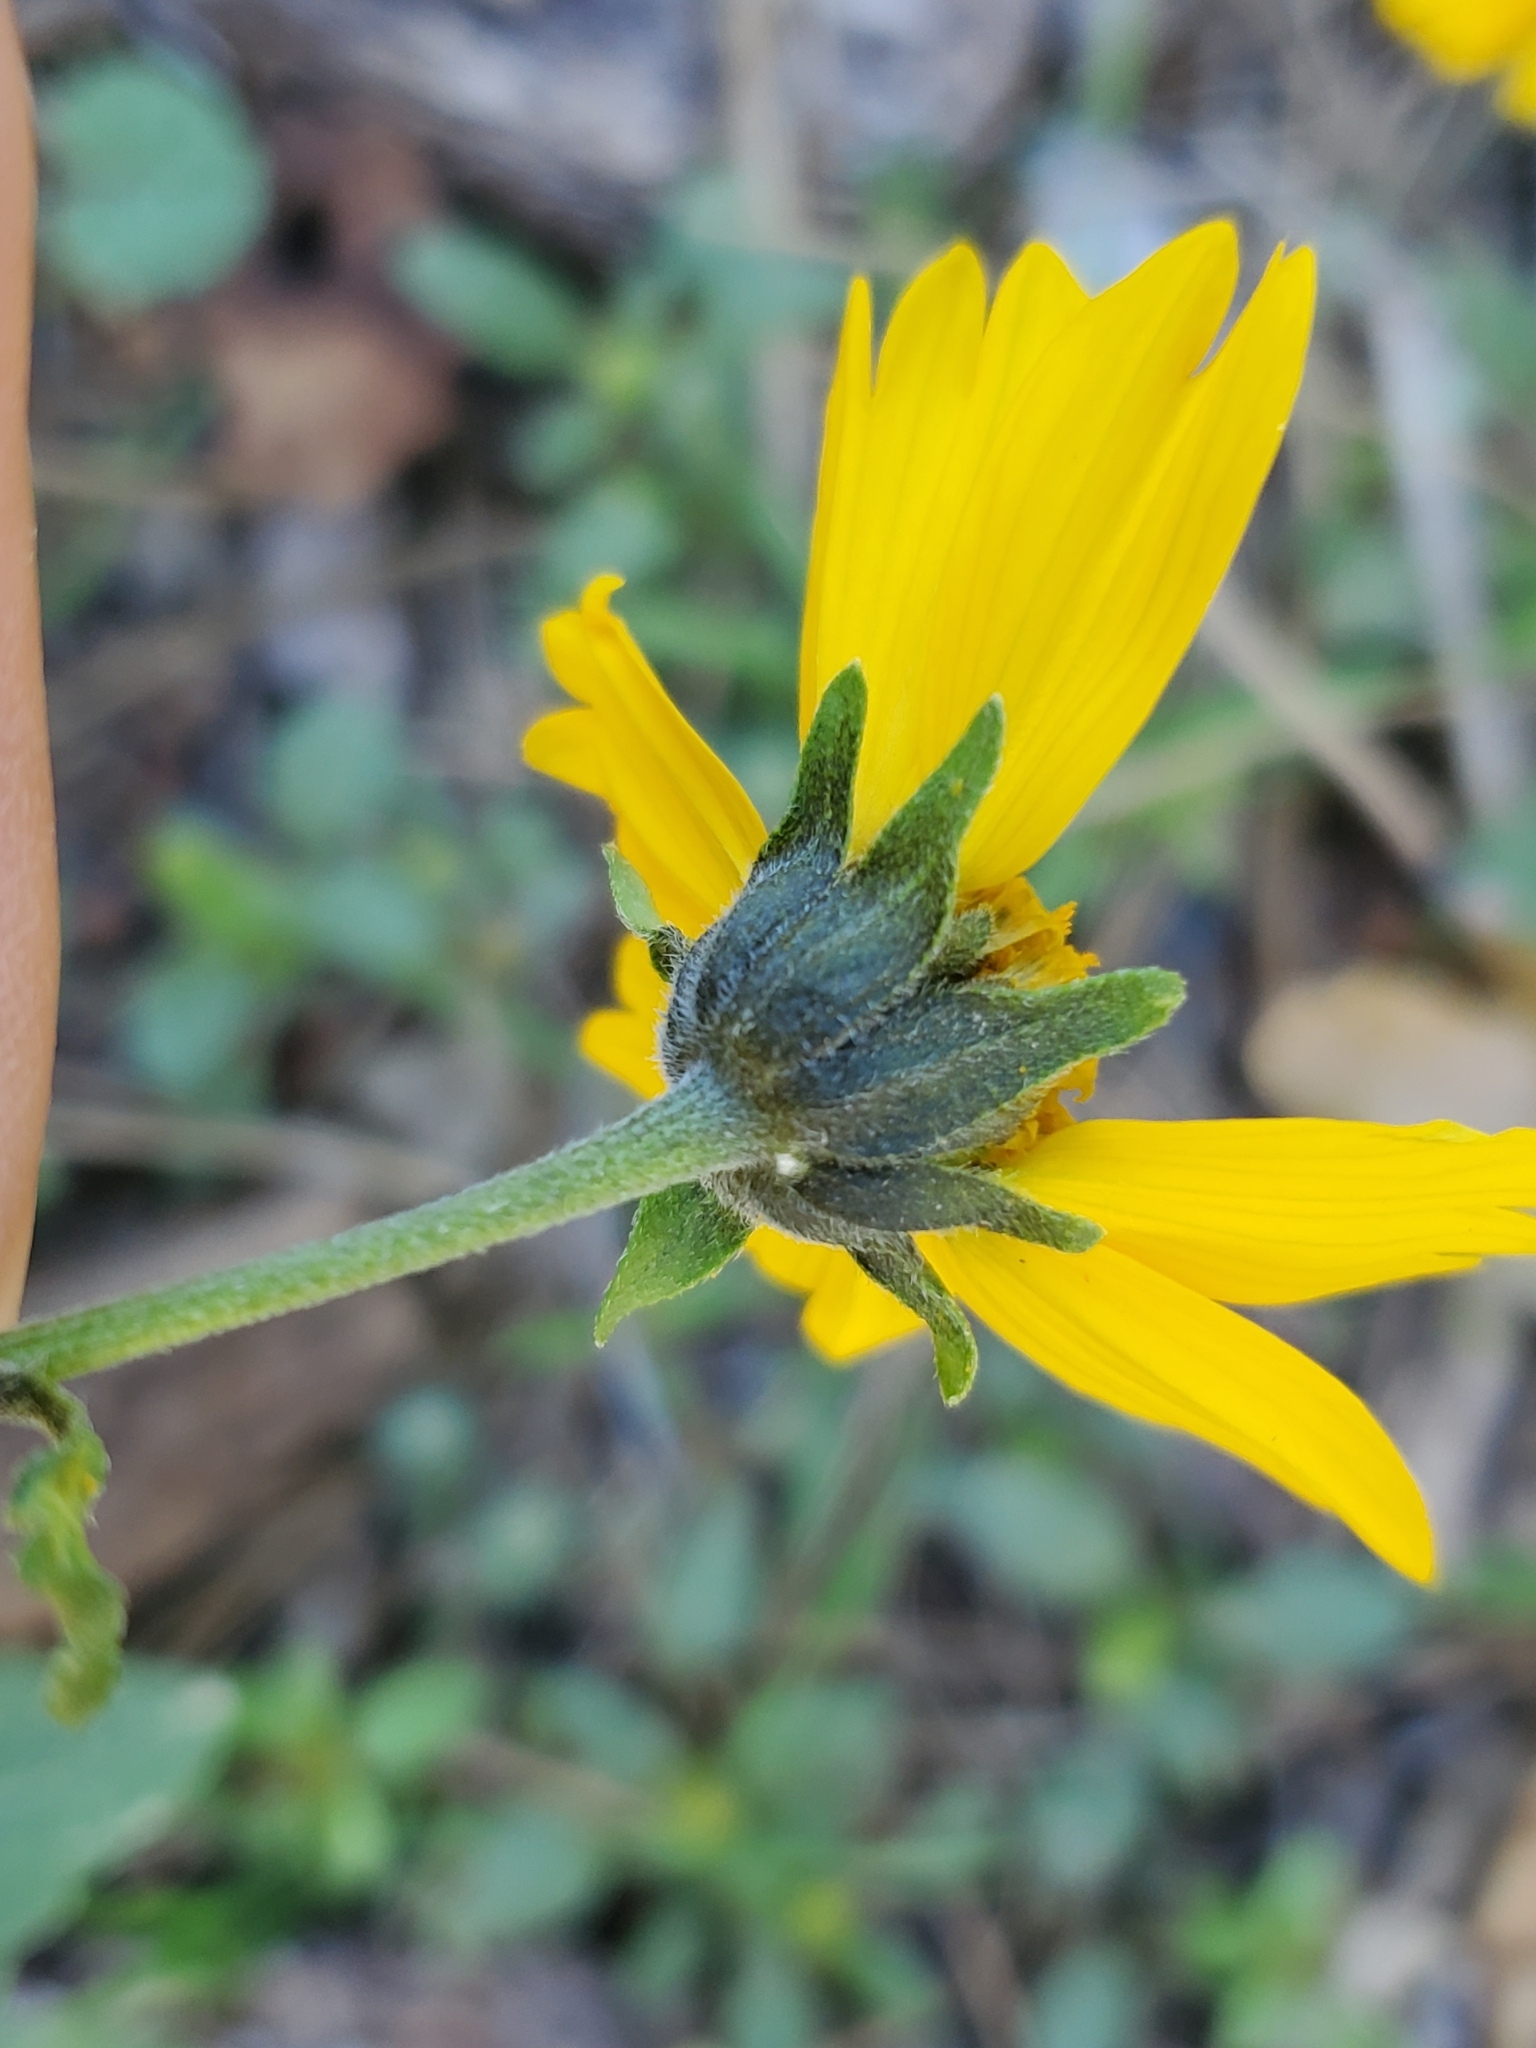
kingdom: Plantae
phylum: Tracheophyta
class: Magnoliopsida
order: Asterales
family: Asteraceae
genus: Verbesina
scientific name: Verbesina encelioides
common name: Golden crownbeard
